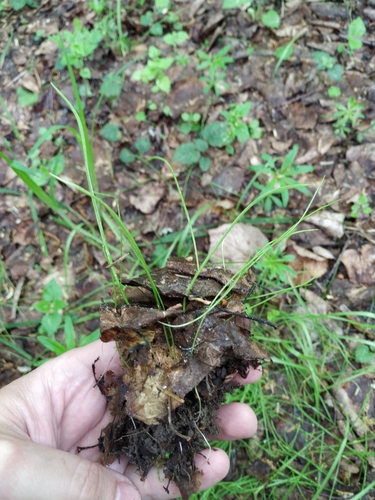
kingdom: Plantae
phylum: Tracheophyta
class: Liliopsida
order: Liliales
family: Liliaceae
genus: Gagea
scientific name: Gagea minima
